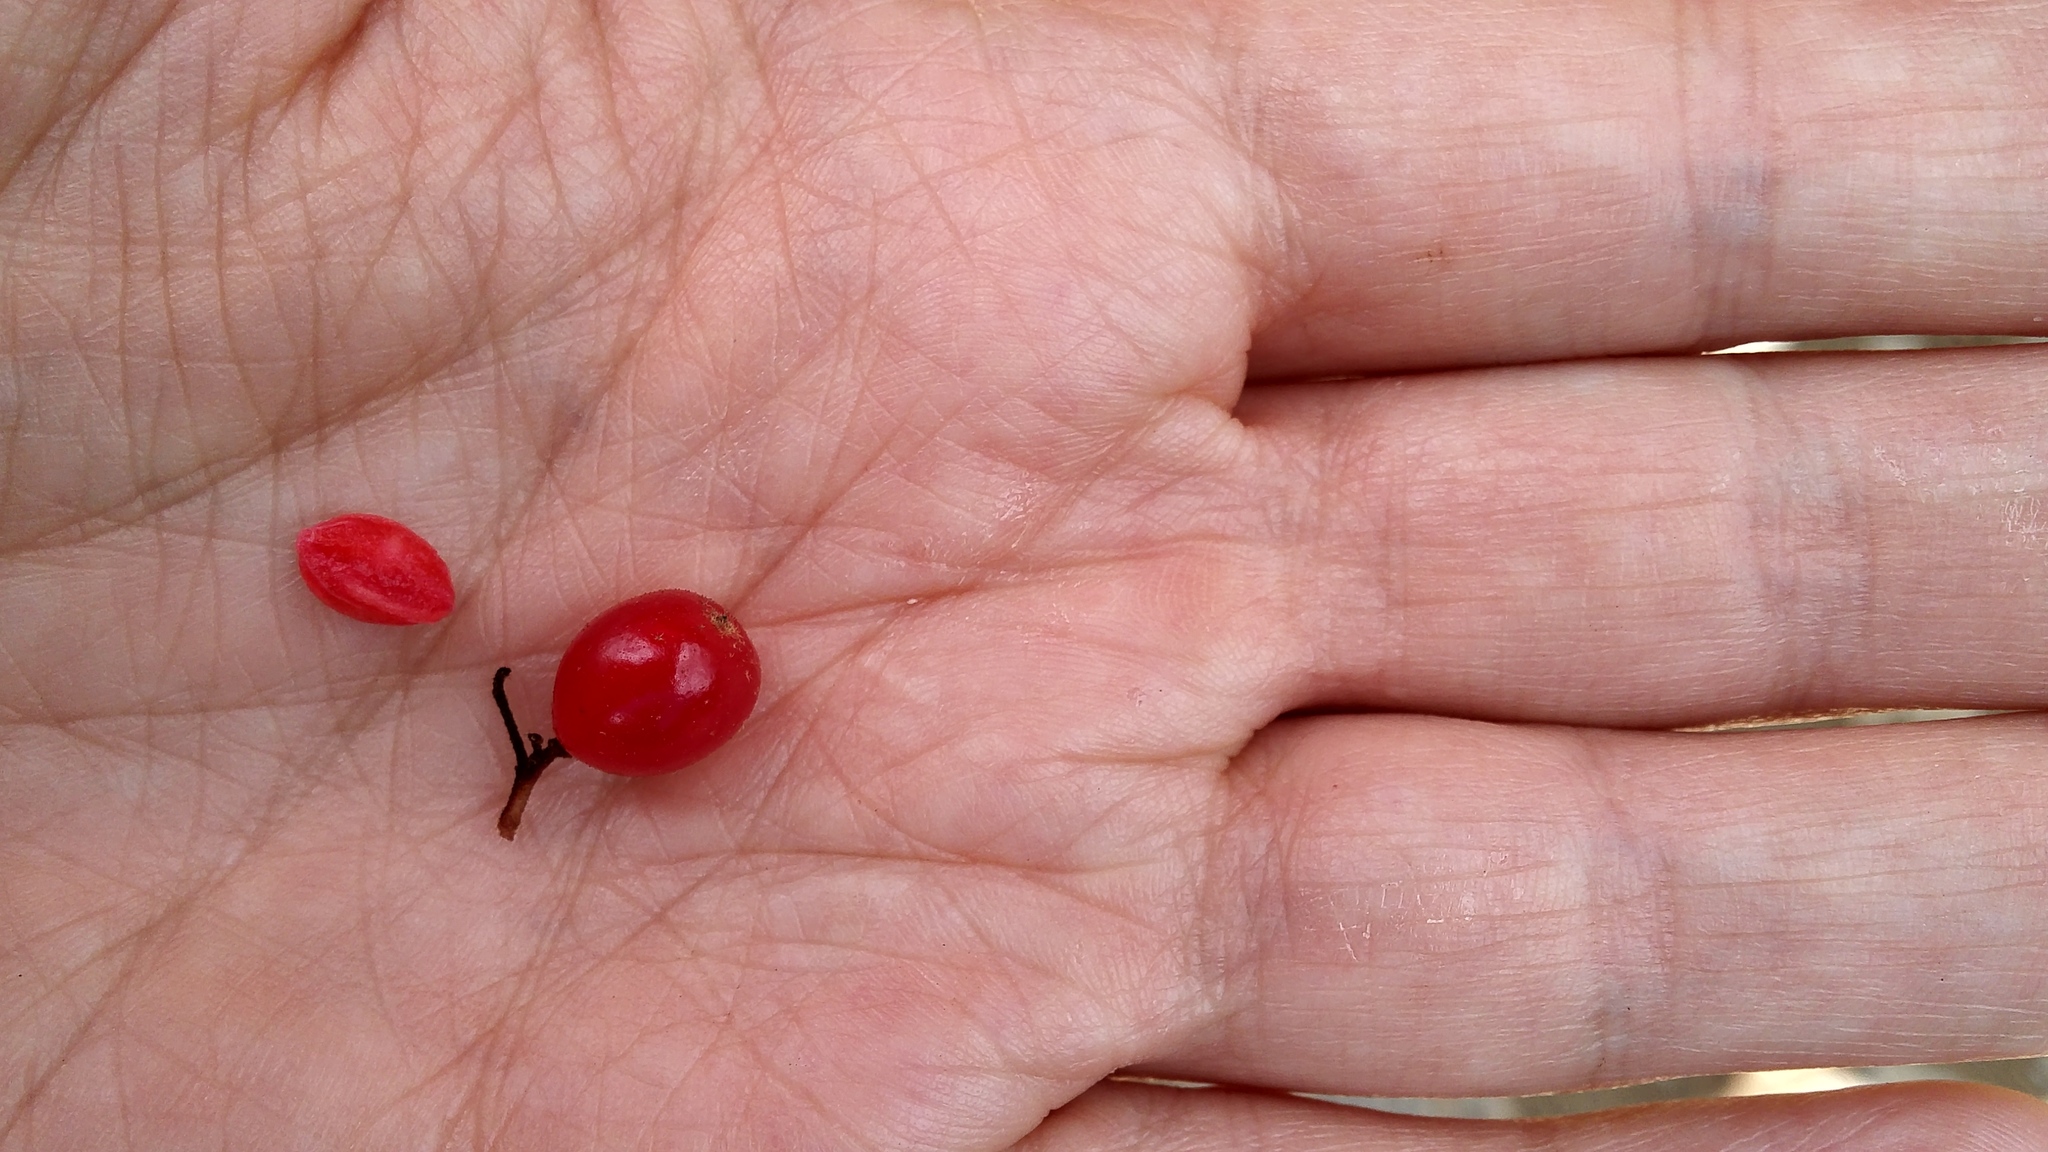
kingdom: Plantae
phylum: Tracheophyta
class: Magnoliopsida
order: Dipsacales
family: Viburnaceae
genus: Viburnum
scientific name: Viburnum betulifolium
